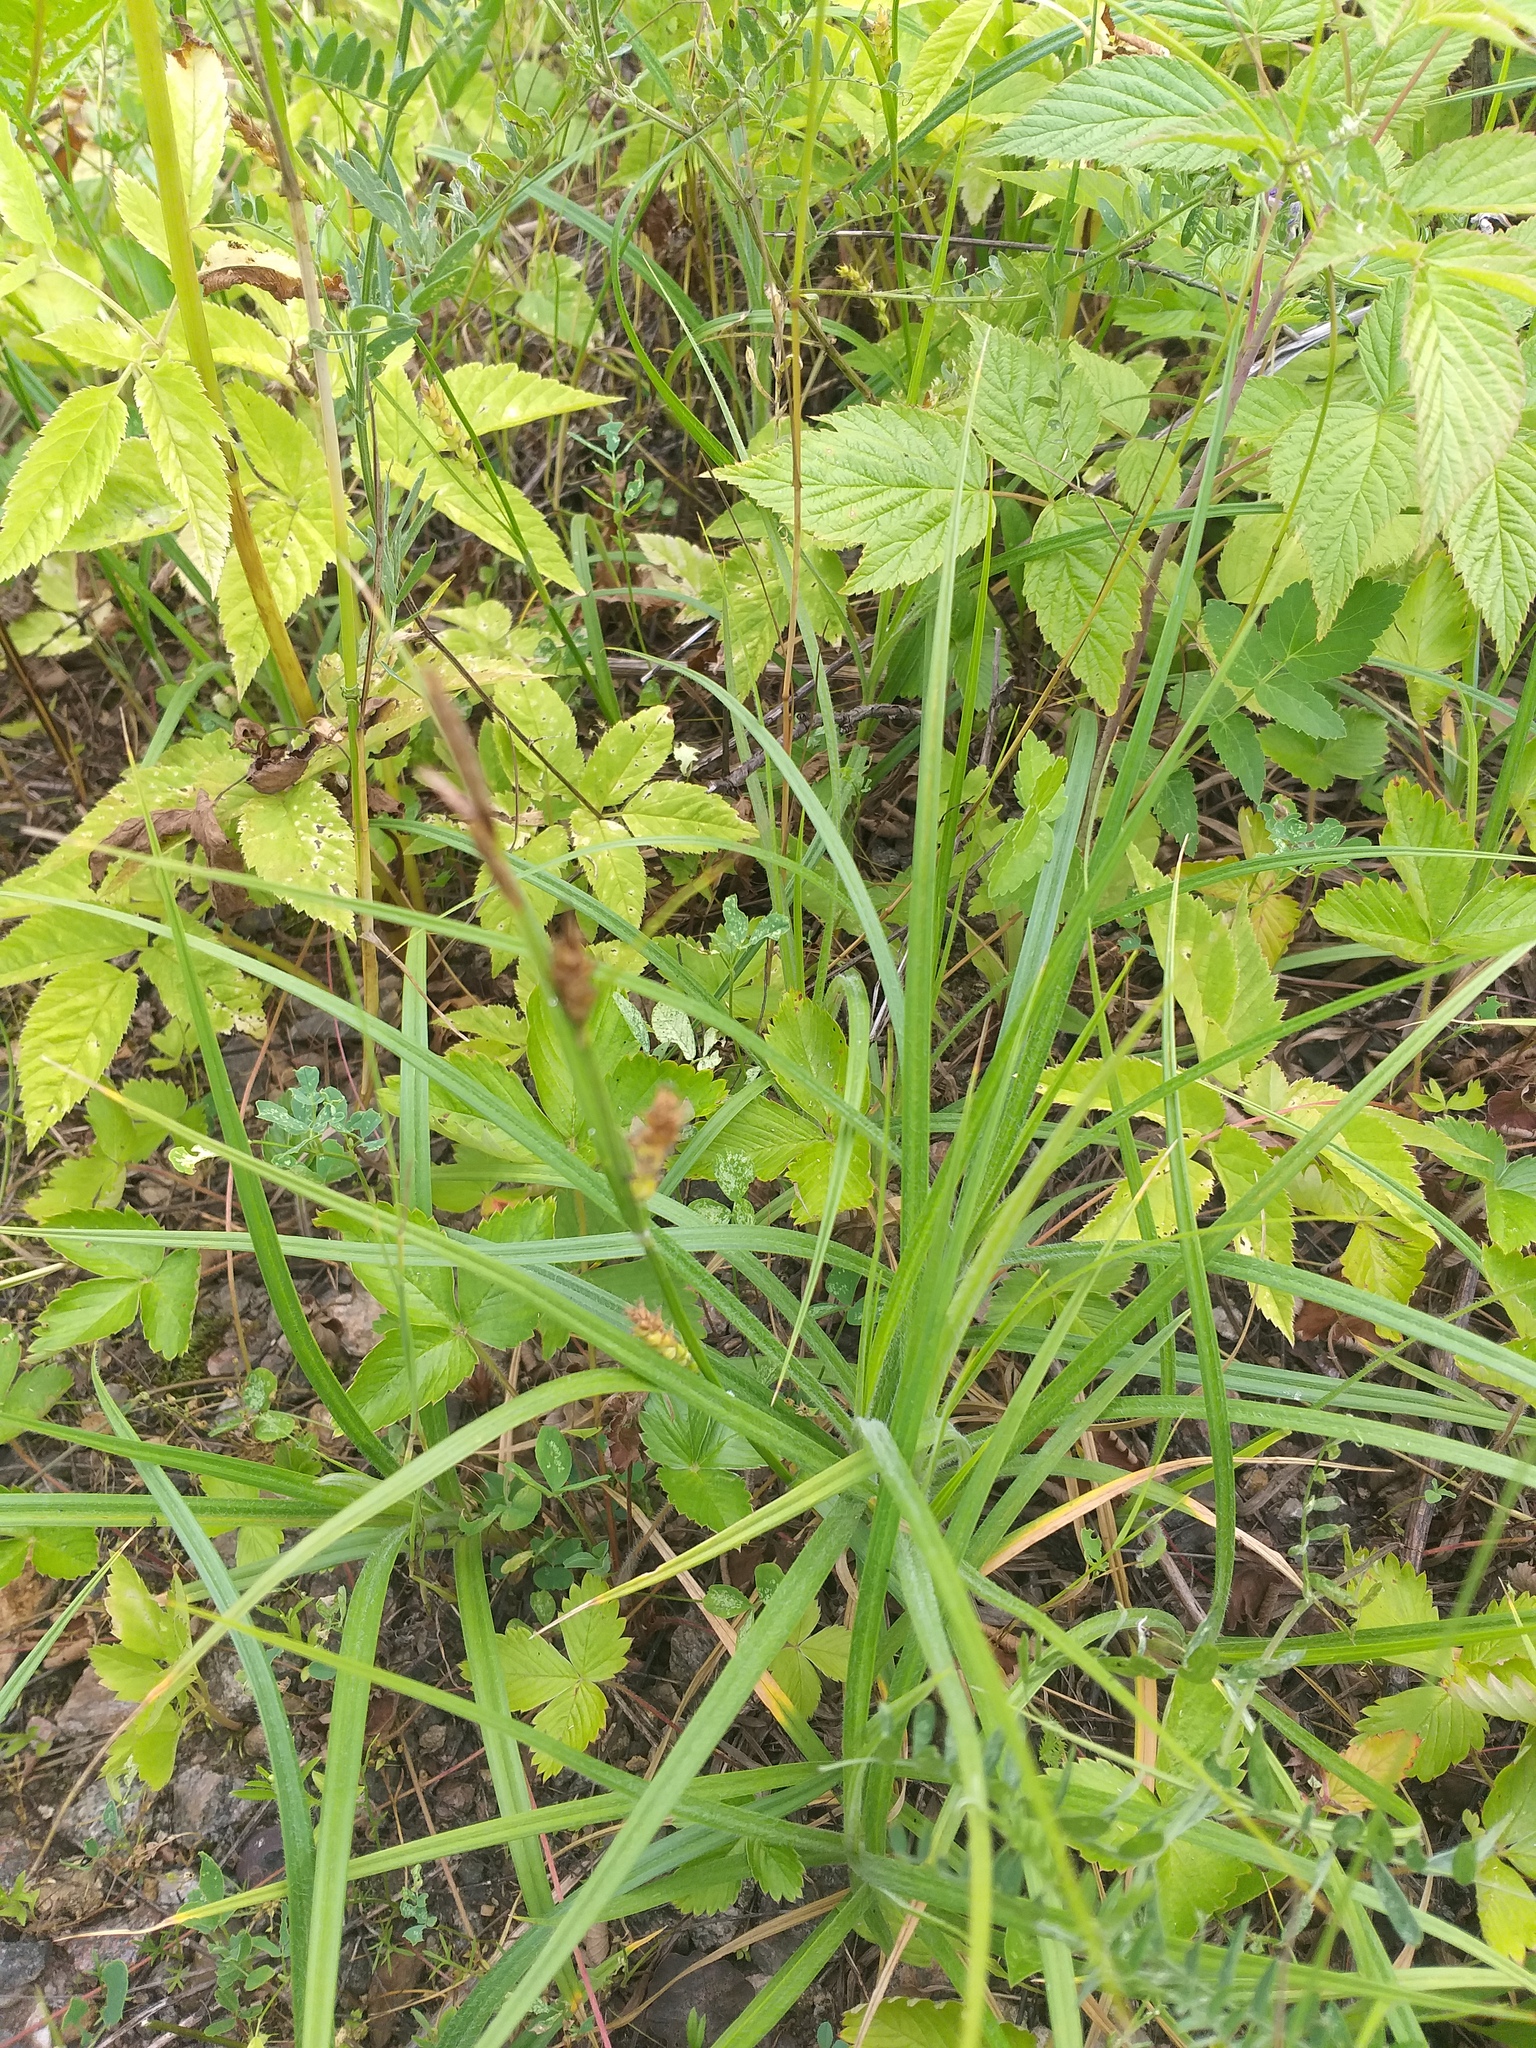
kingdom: Plantae
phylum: Tracheophyta
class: Liliopsida
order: Poales
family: Cyperaceae
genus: Carex
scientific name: Carex hirta
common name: Hairy sedge
